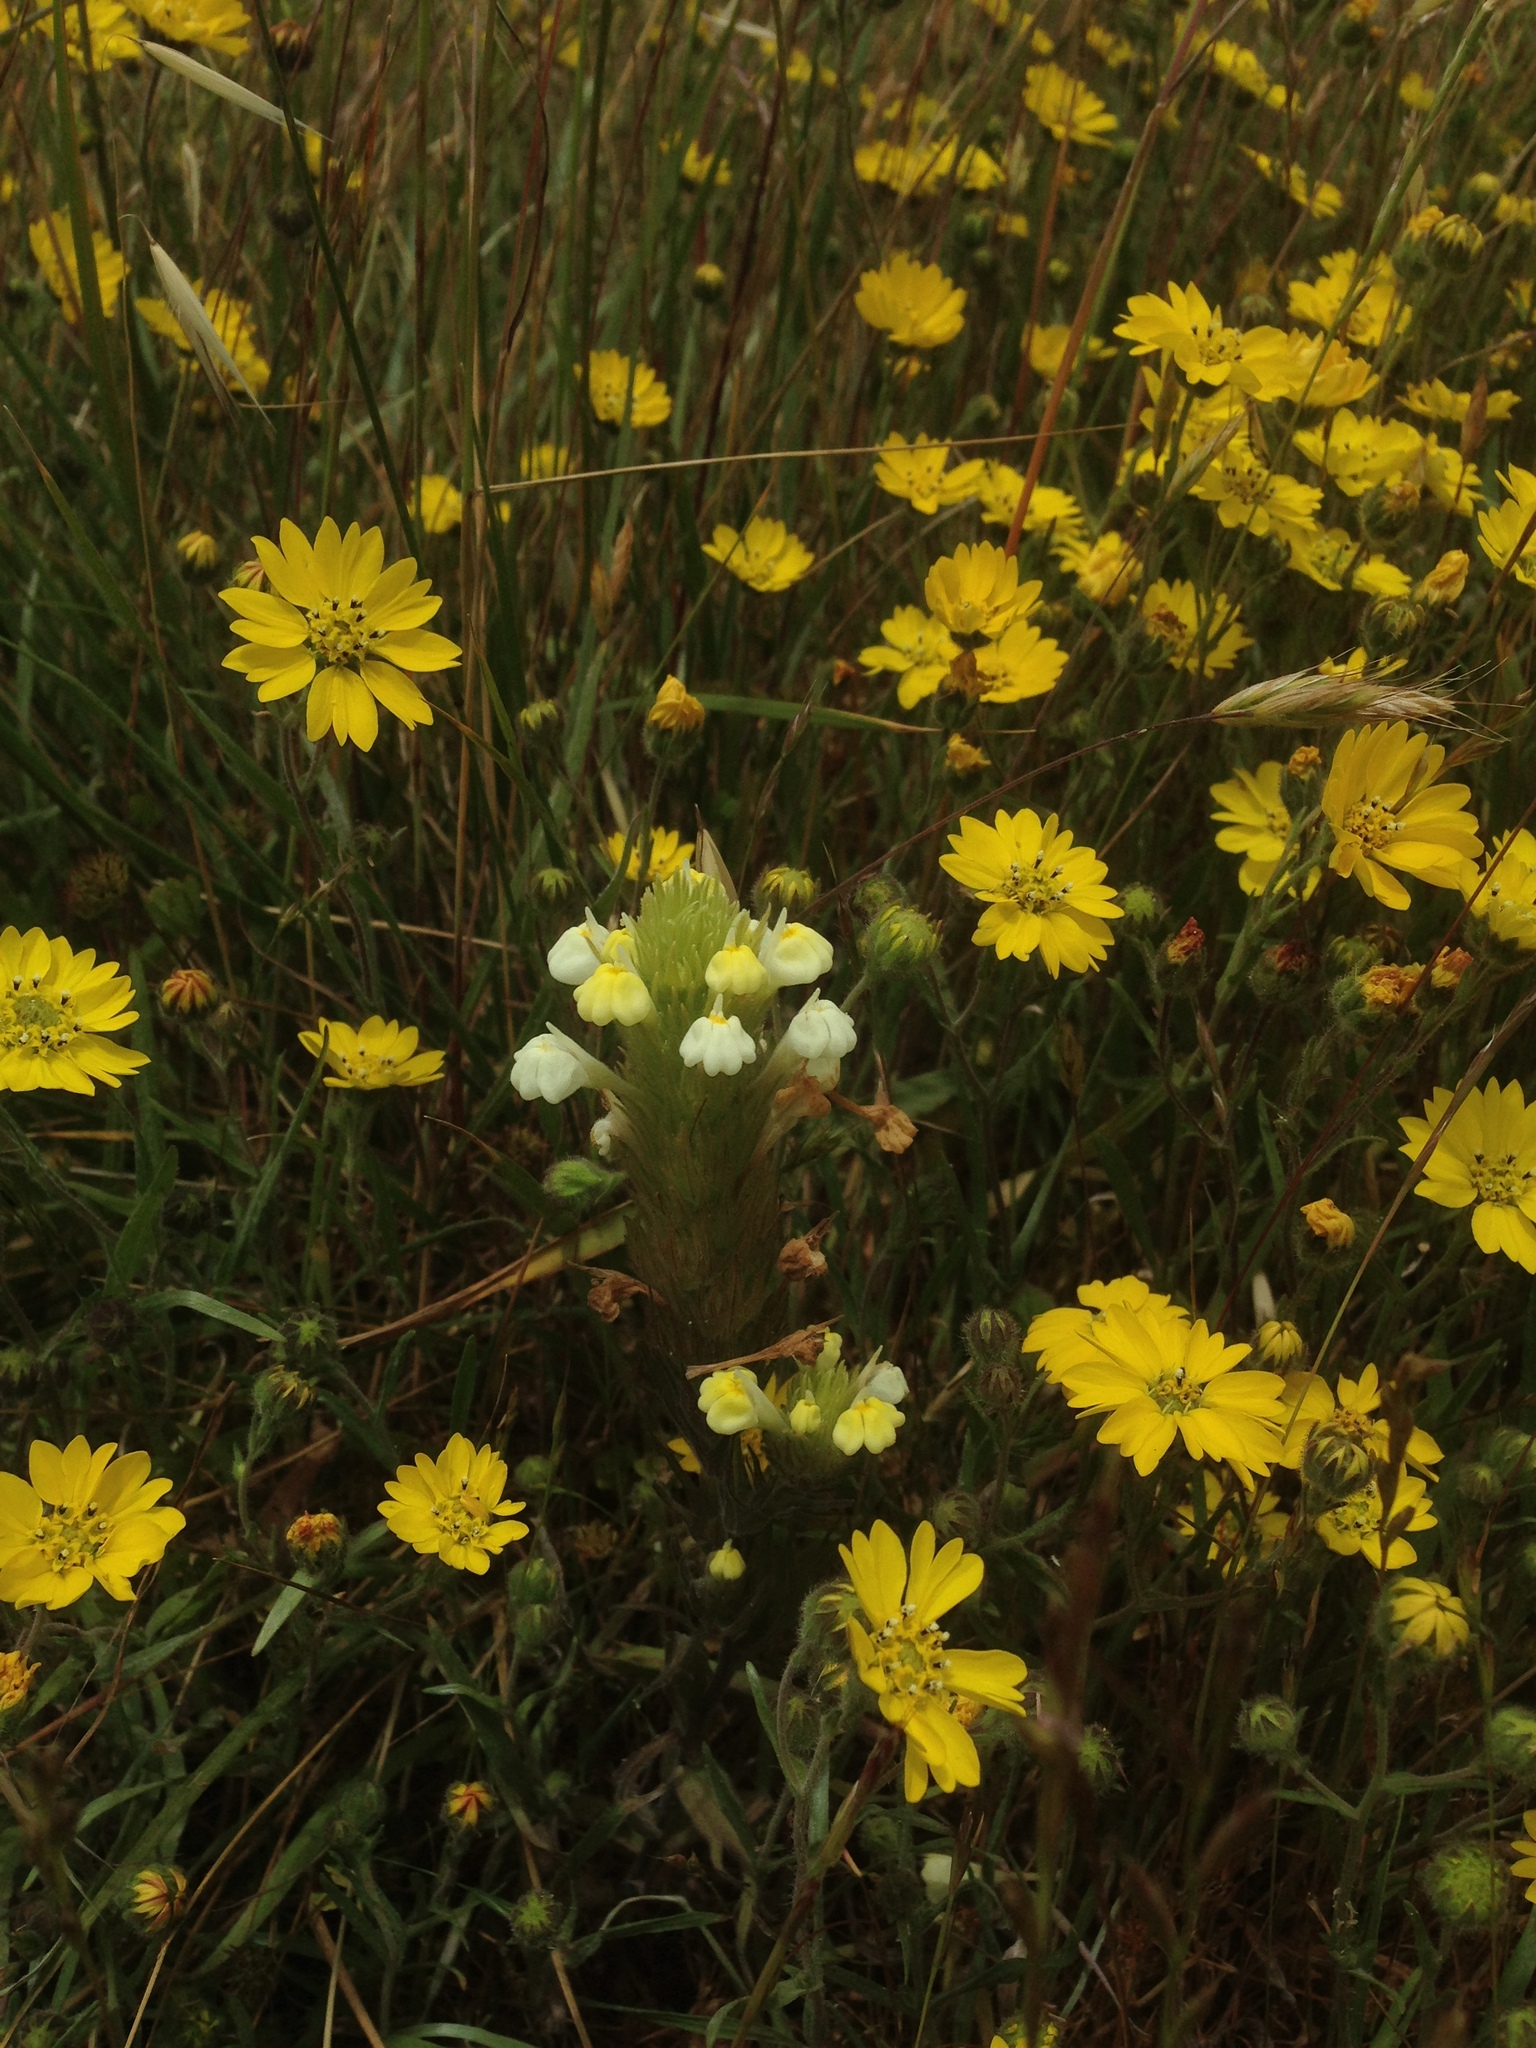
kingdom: Plantae
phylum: Tracheophyta
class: Magnoliopsida
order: Lamiales
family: Orobanchaceae
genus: Castilleja
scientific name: Castilleja rubicundula
